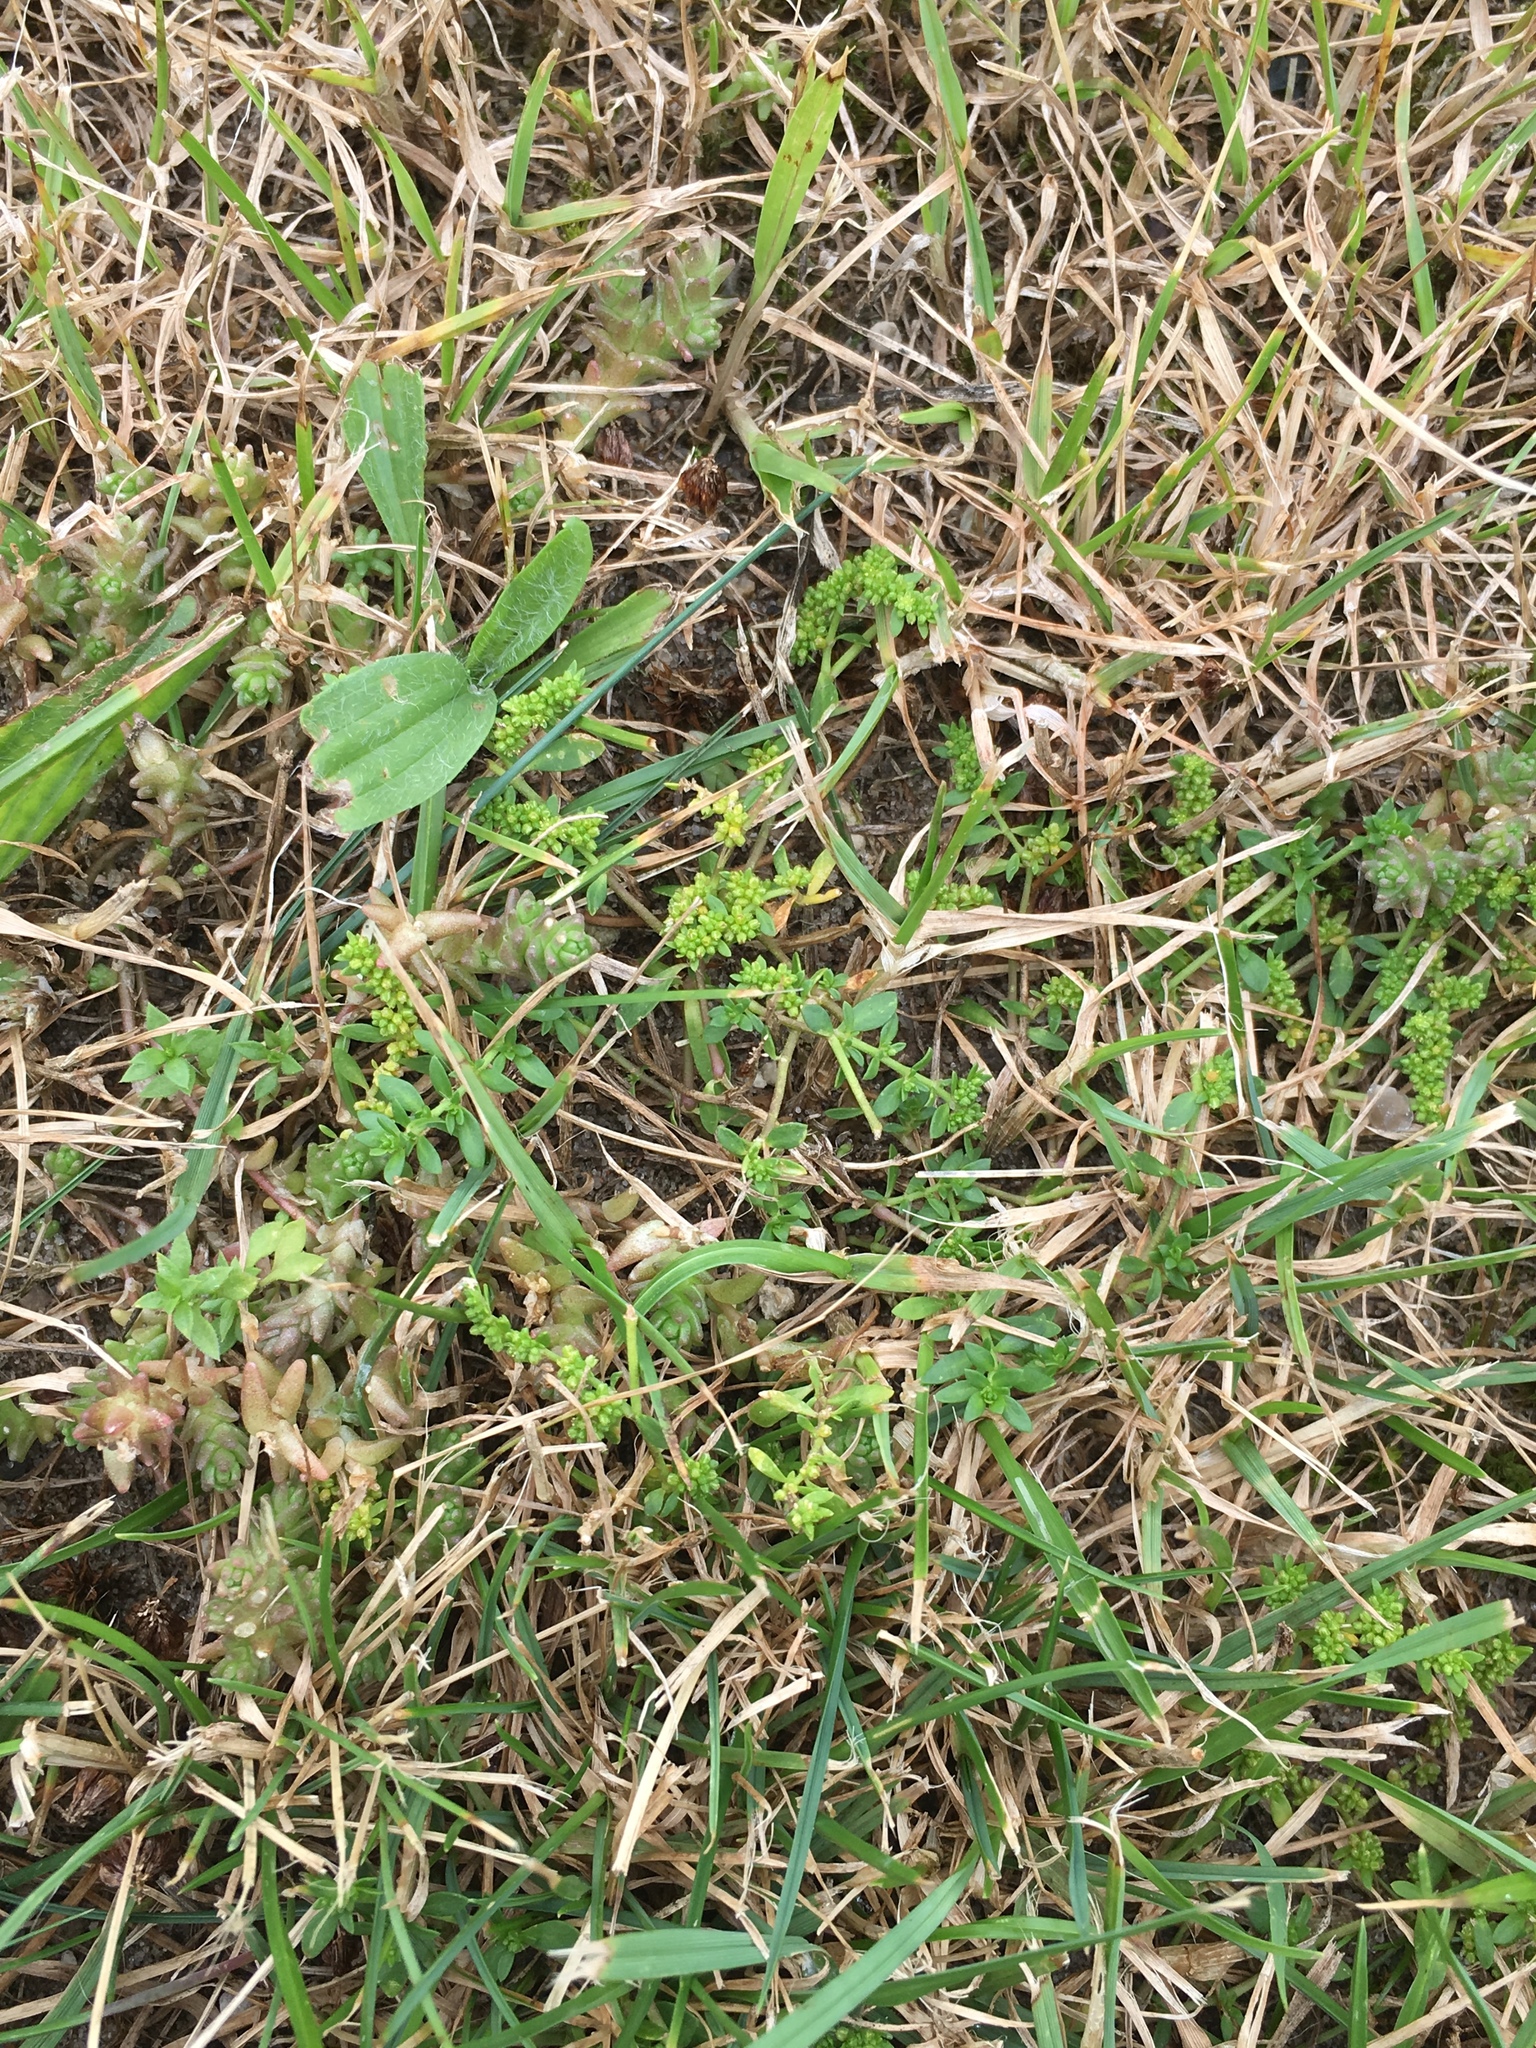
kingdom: Plantae
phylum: Tracheophyta
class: Magnoliopsida
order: Caryophyllales
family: Caryophyllaceae
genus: Herniaria
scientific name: Herniaria glabra
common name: Smooth rupturewort
